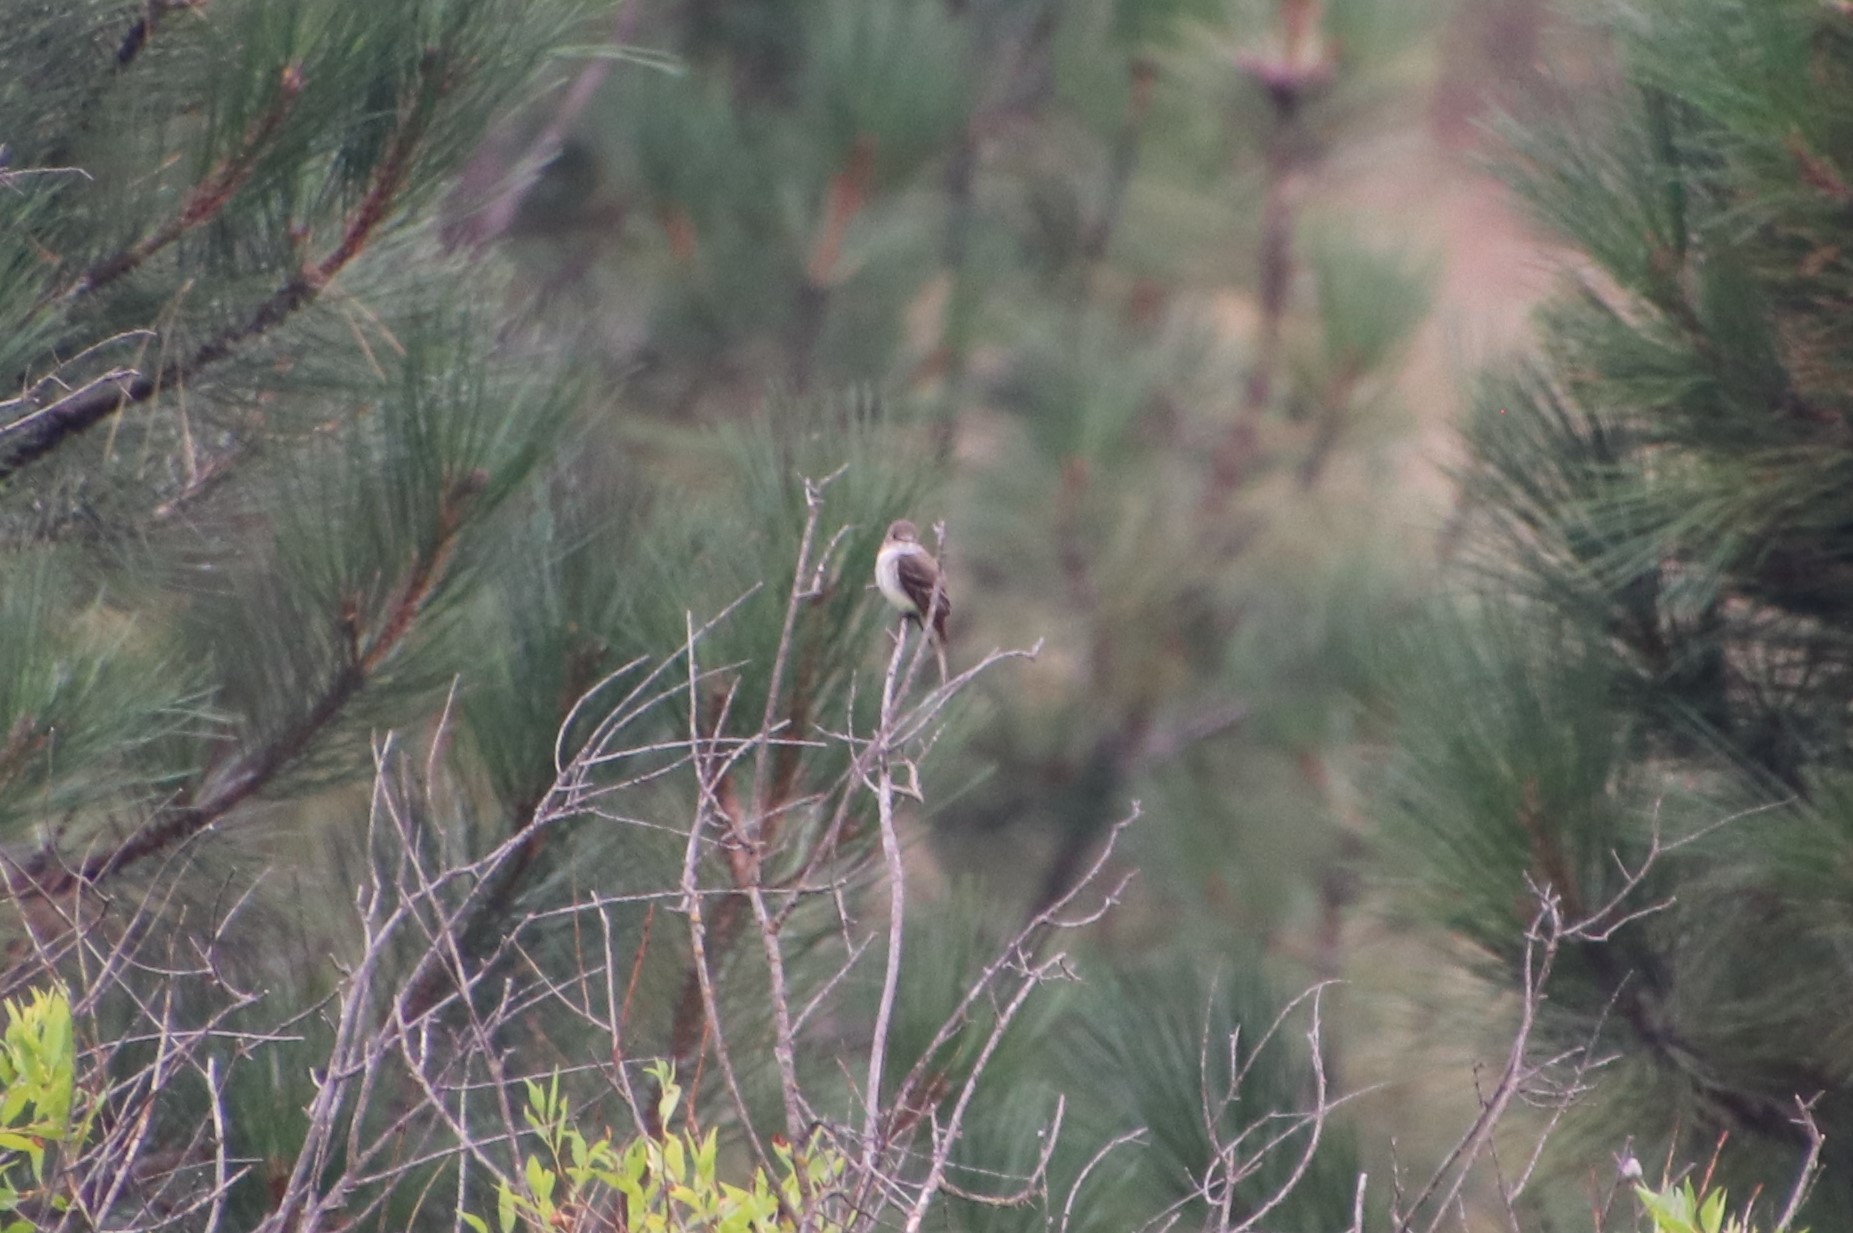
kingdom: Animalia
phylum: Chordata
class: Aves
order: Passeriformes
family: Tyrannidae
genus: Empidonax
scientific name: Empidonax traillii
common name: Willow flycatcher
